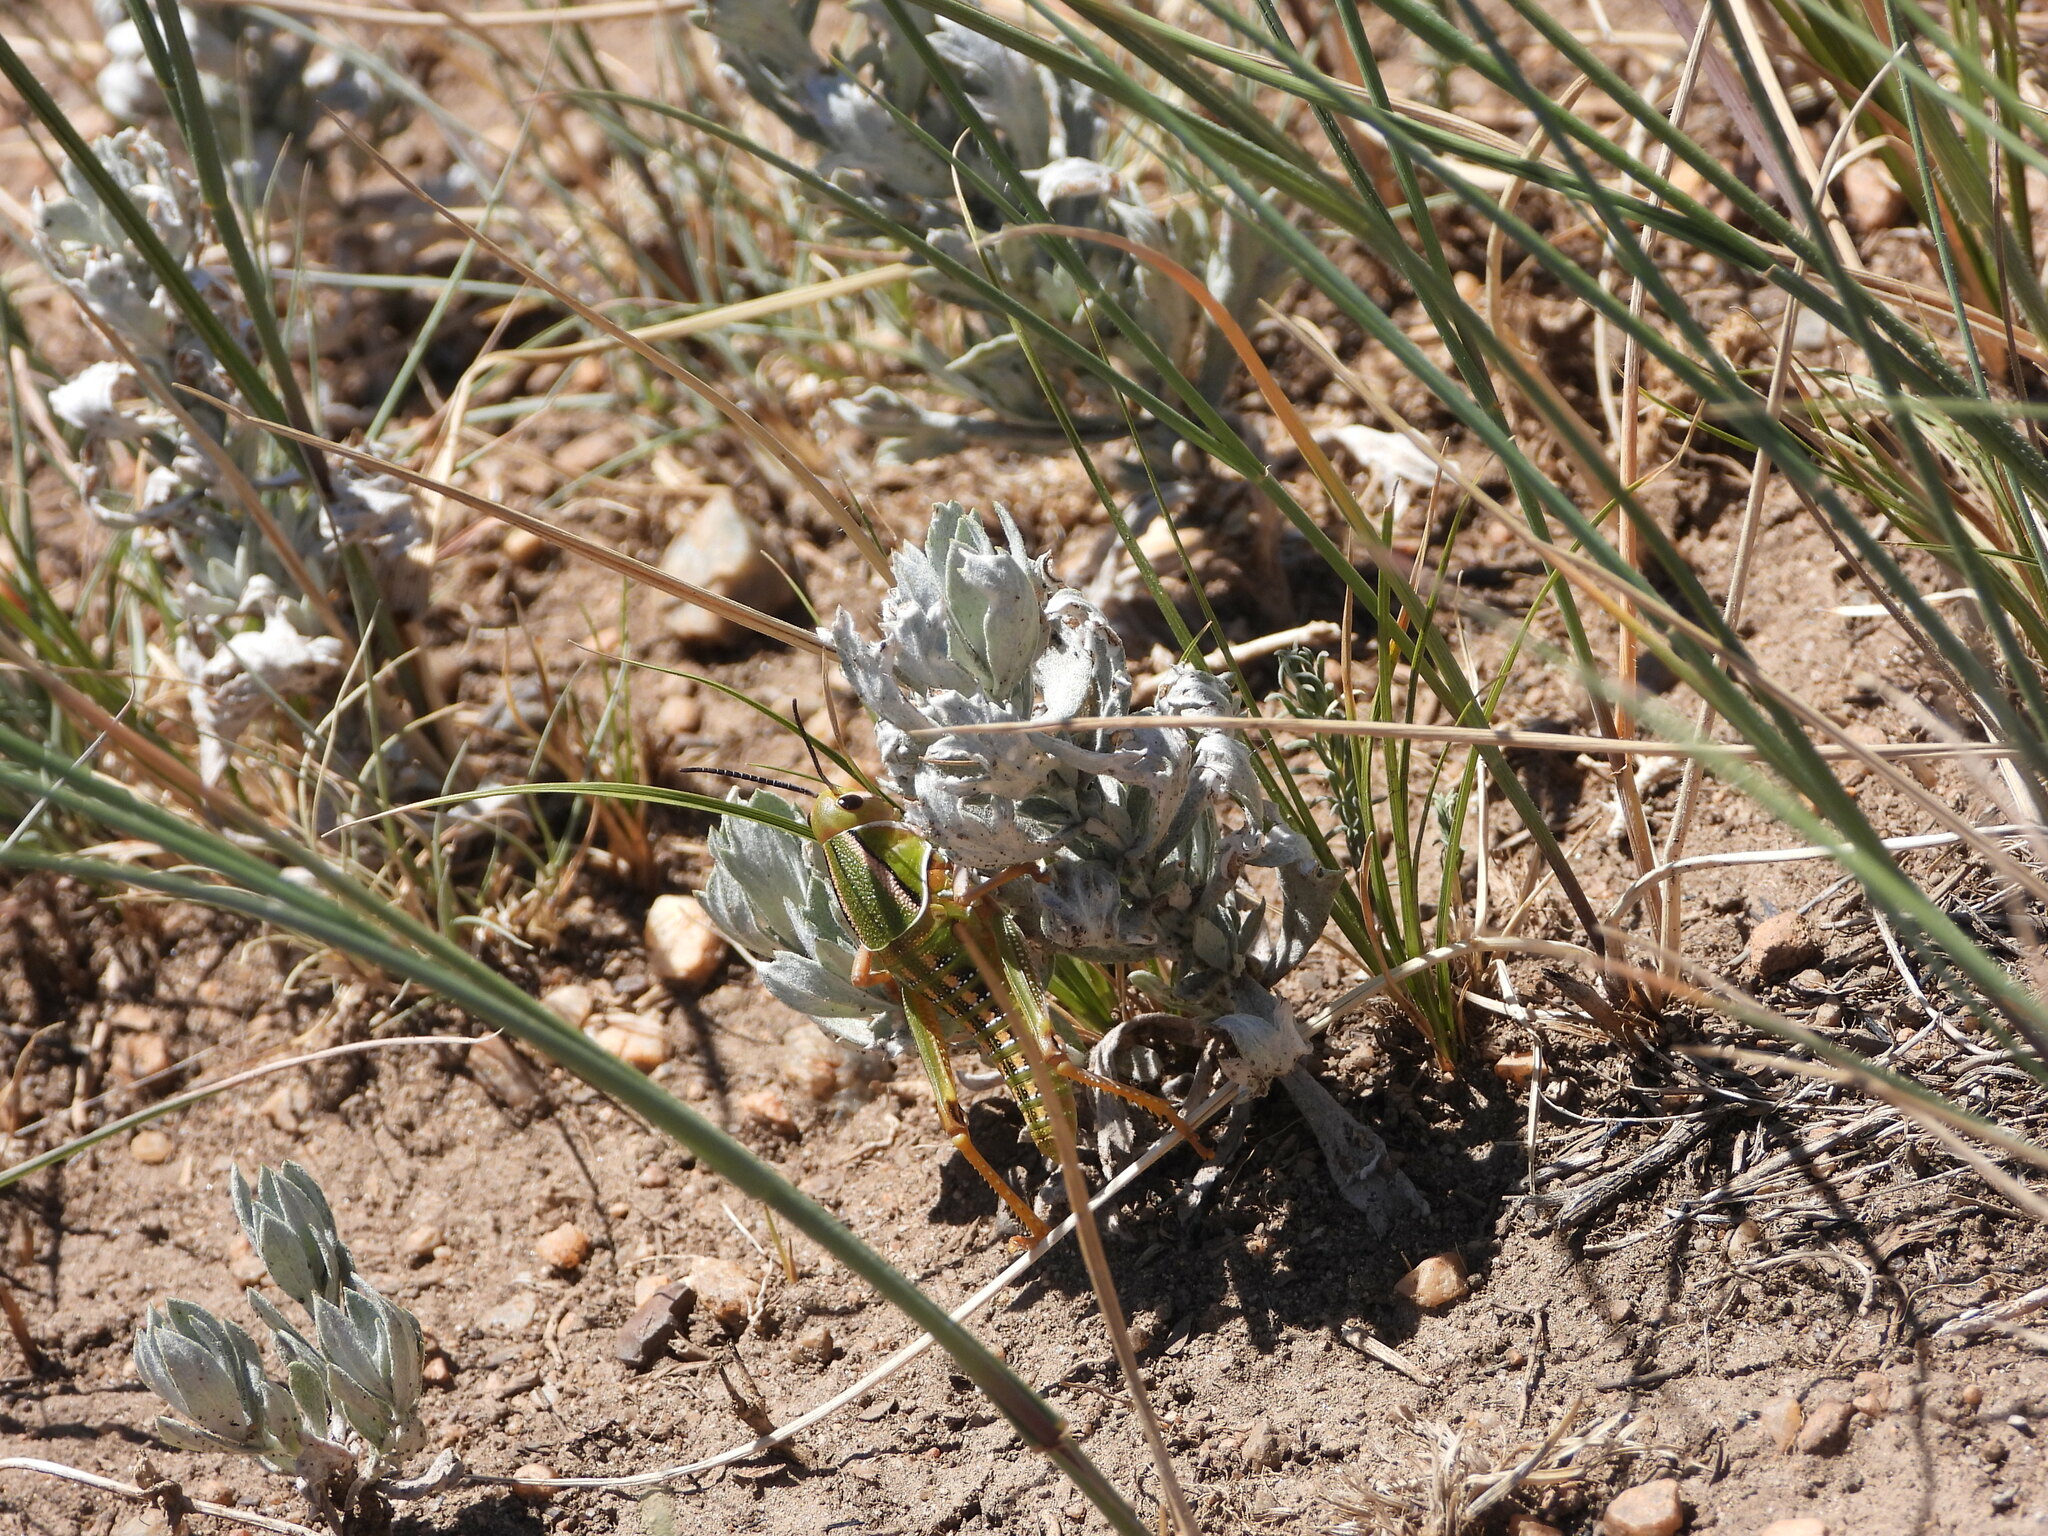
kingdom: Animalia
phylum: Arthropoda
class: Insecta
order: Orthoptera
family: Romaleidae
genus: Brachystola
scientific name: Brachystola magna
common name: Plains lubber grasshopper
